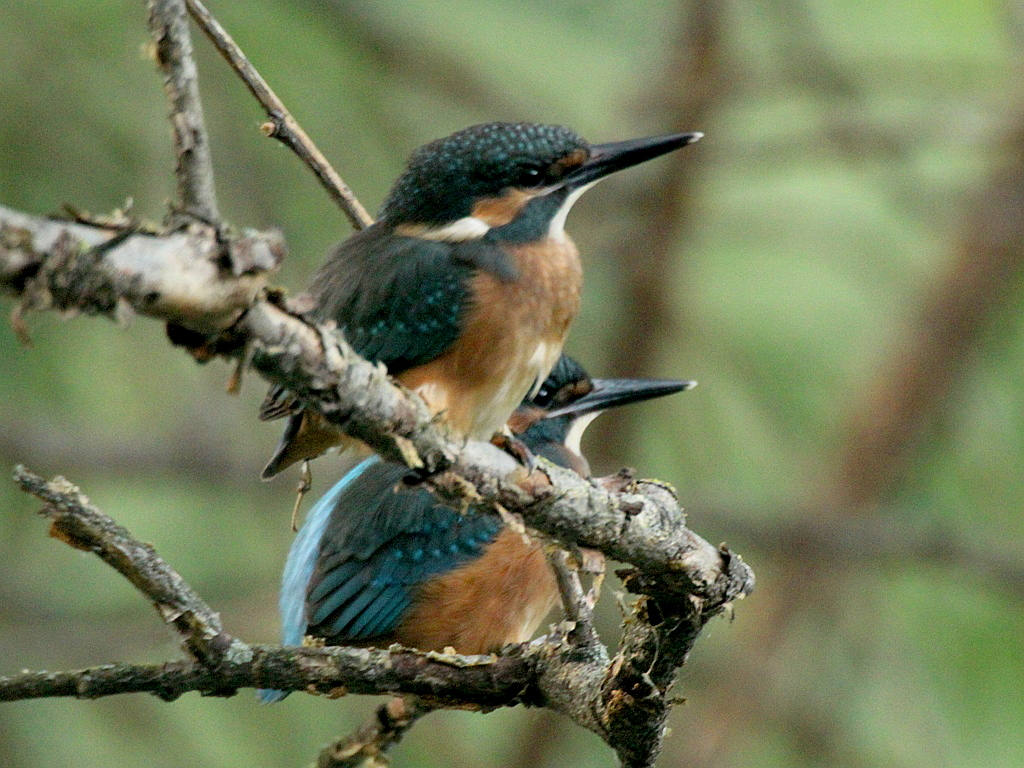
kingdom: Animalia
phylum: Chordata
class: Aves
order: Coraciiformes
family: Alcedinidae
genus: Alcedo
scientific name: Alcedo atthis
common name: Common kingfisher
